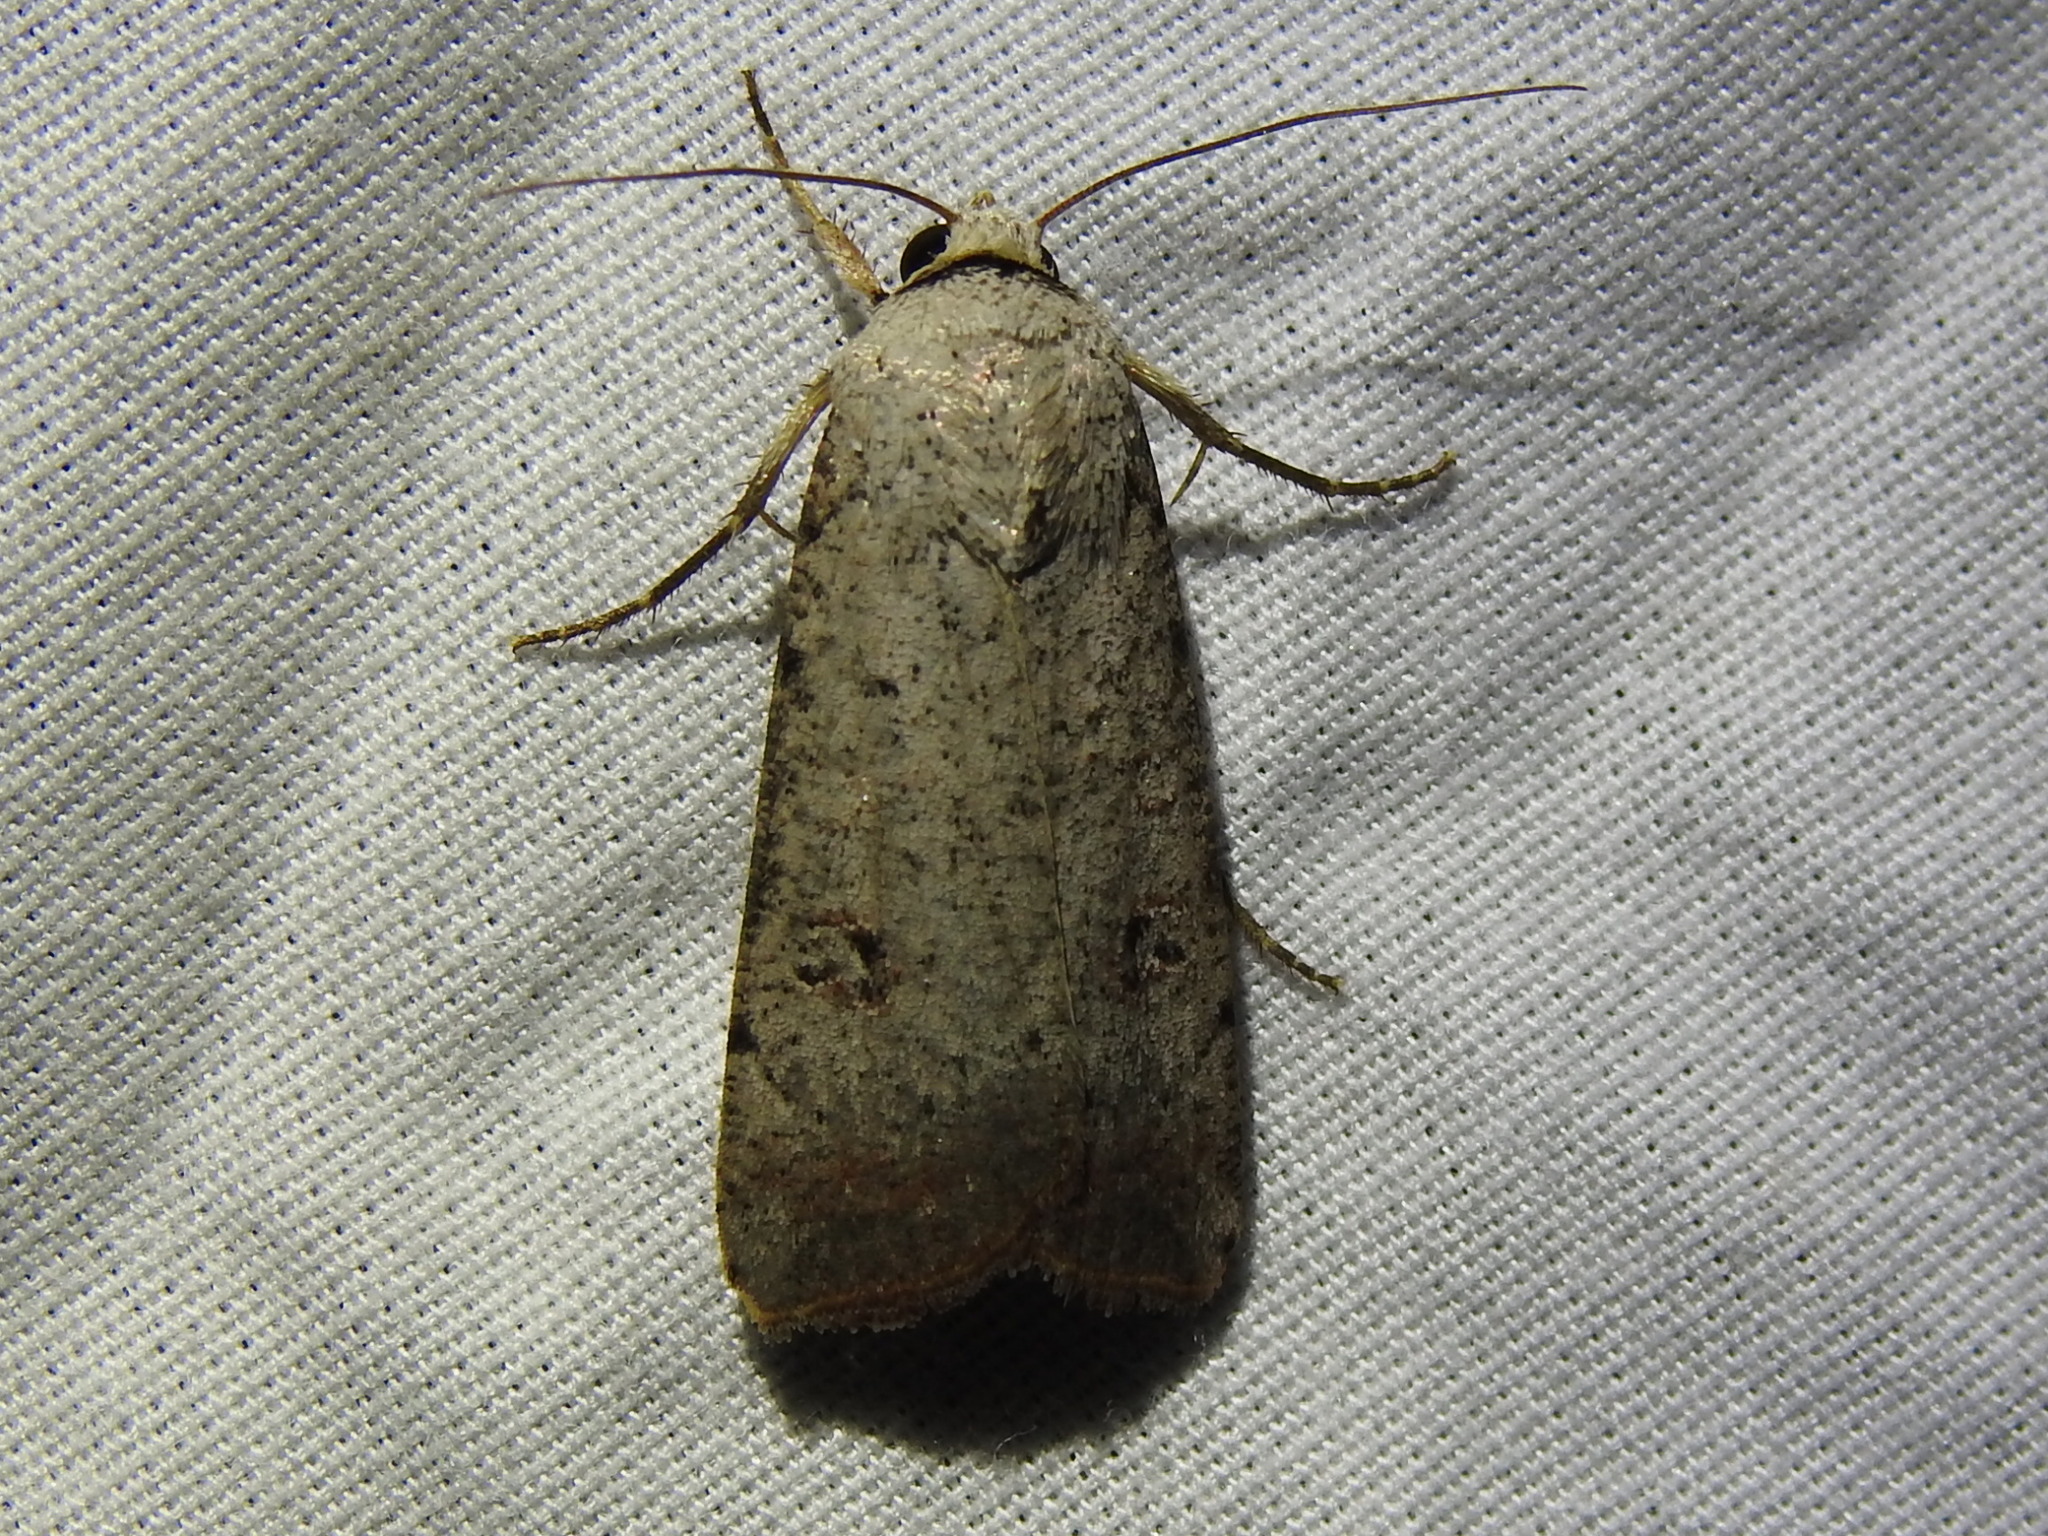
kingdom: Animalia
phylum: Arthropoda
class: Insecta
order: Lepidoptera
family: Noctuidae
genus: Anicla
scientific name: Anicla infecta
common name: Green cutworm
